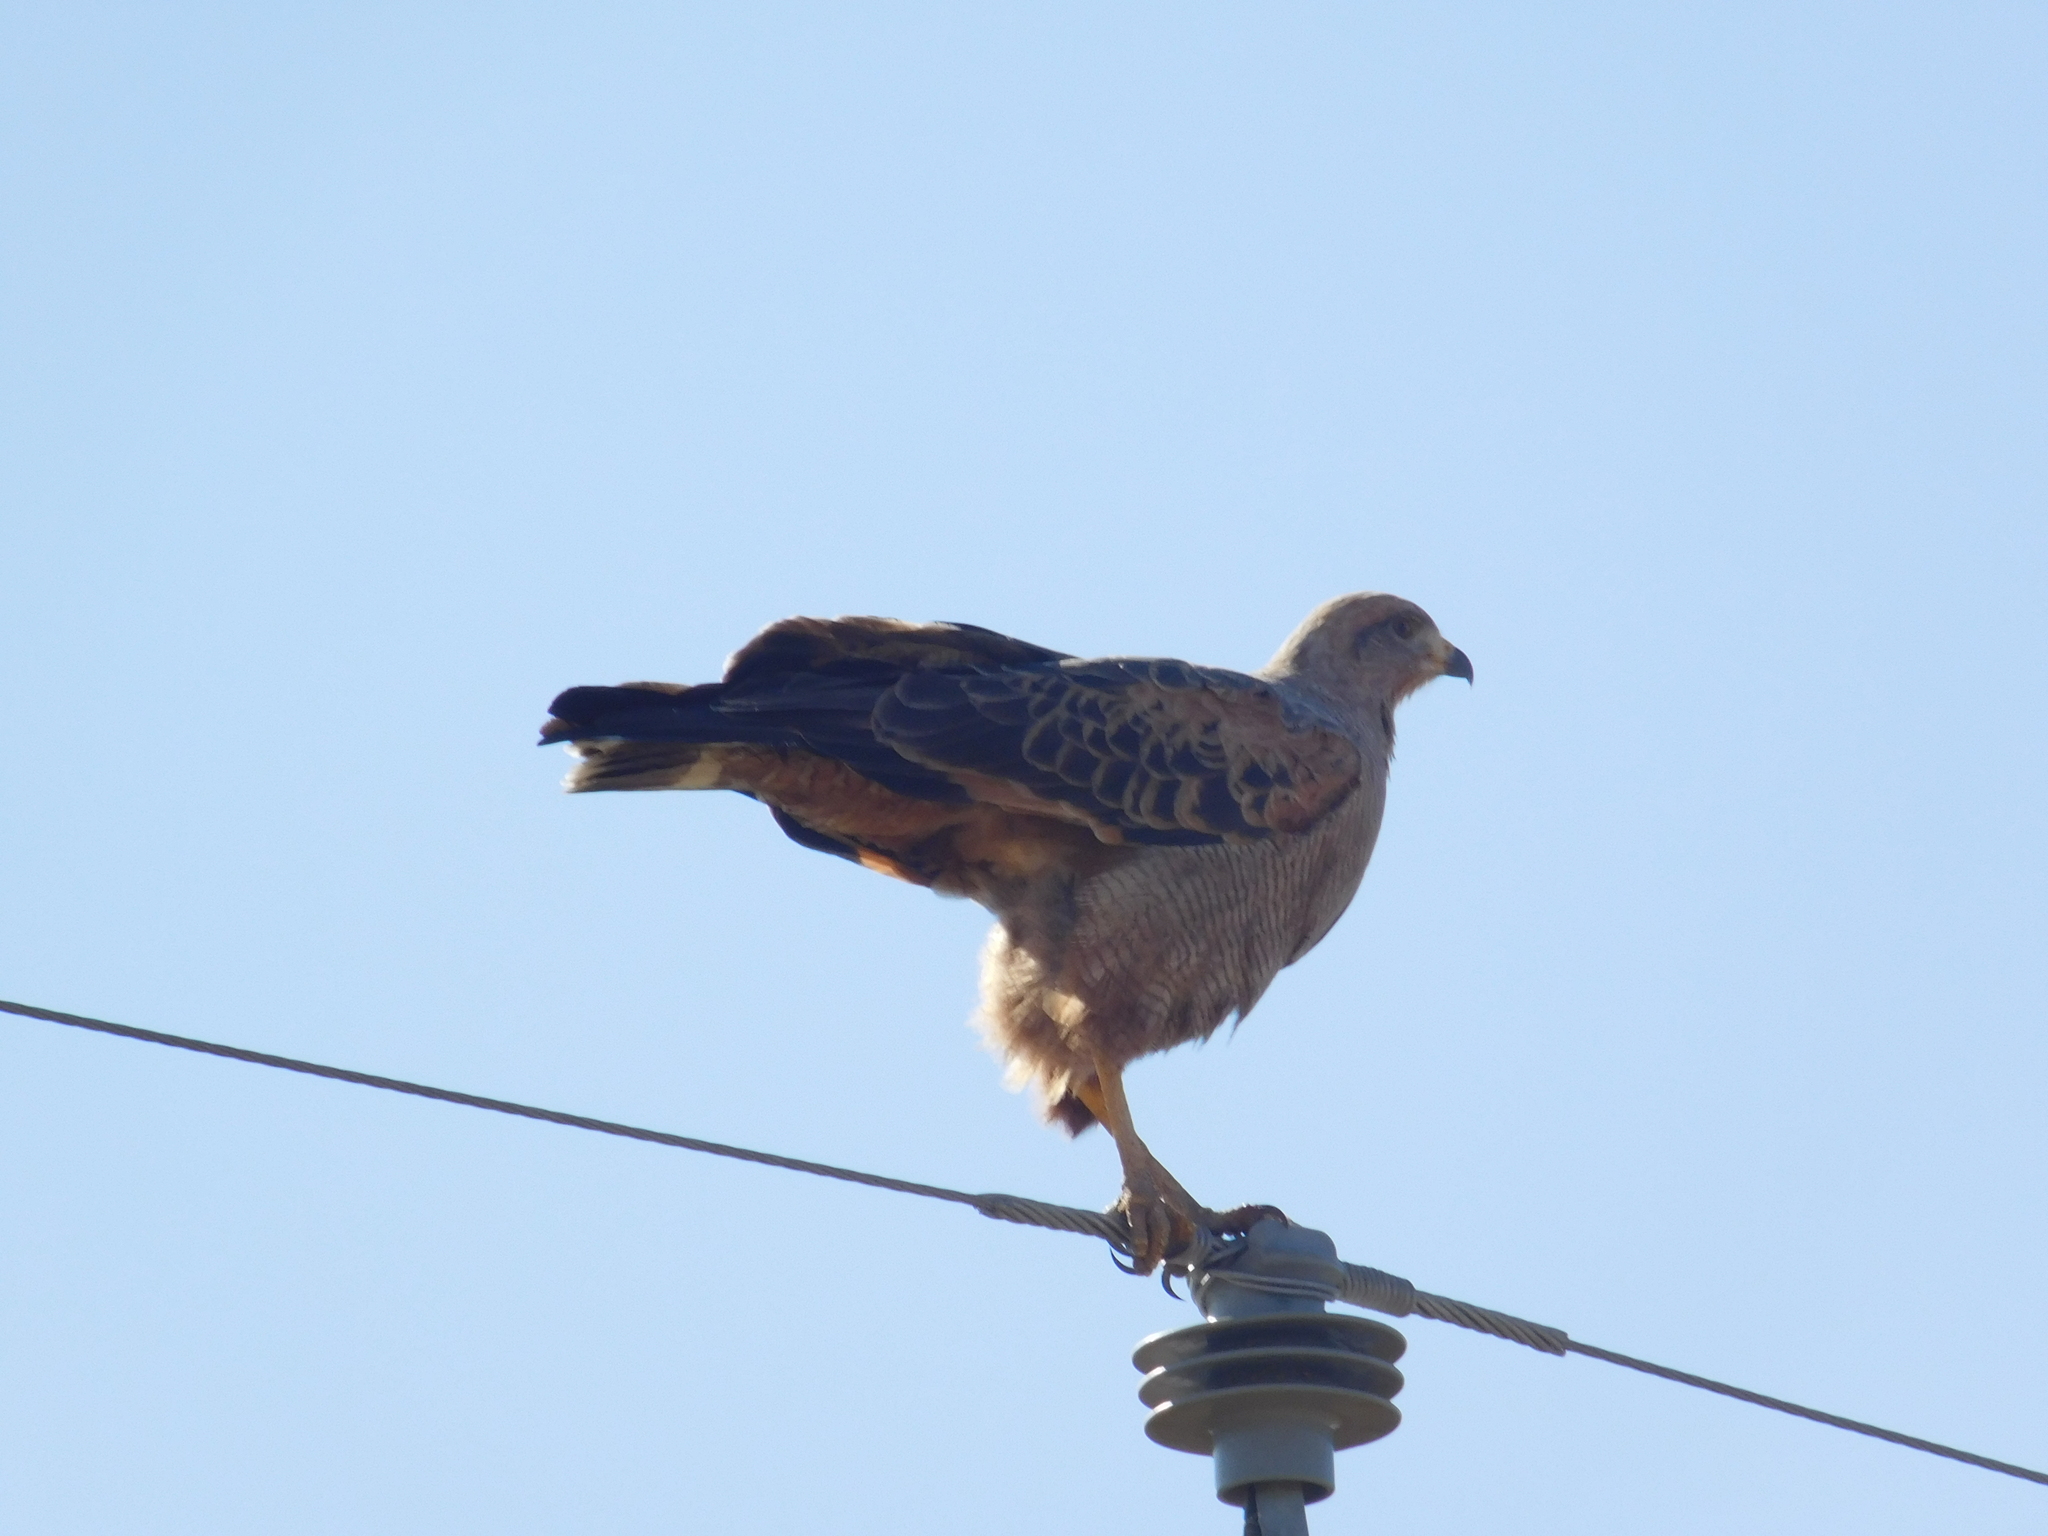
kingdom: Animalia
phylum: Chordata
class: Aves
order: Accipitriformes
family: Accipitridae
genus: Buteogallus
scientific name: Buteogallus meridionalis
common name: Savanna hawk
